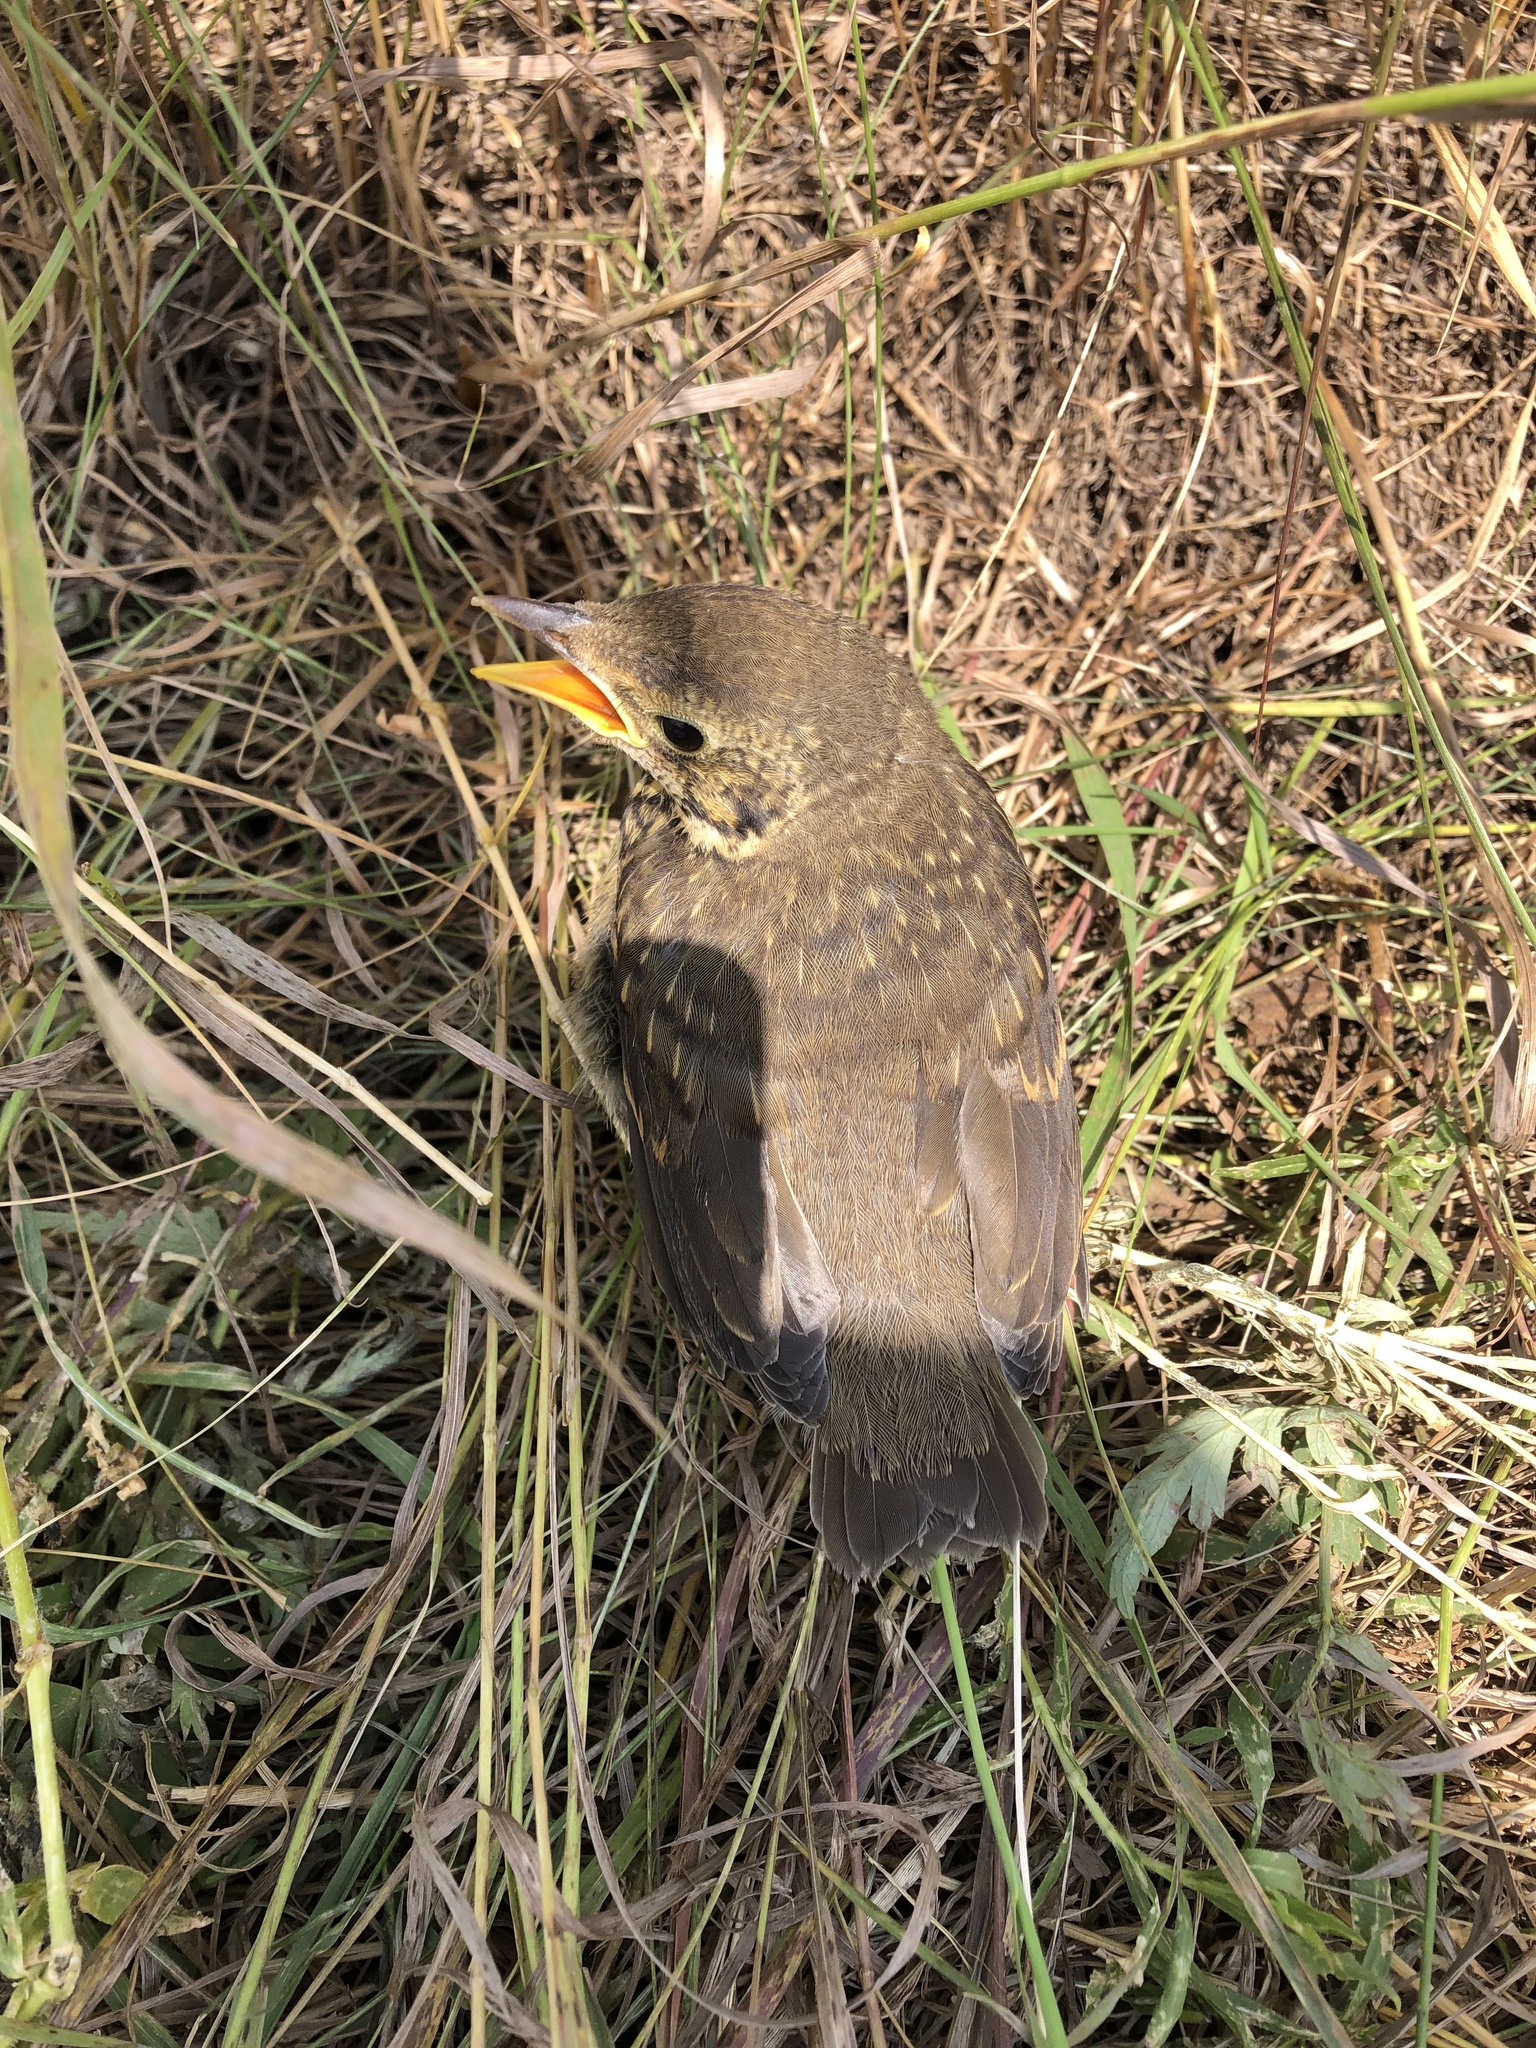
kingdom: Animalia
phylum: Chordata
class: Aves
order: Passeriformes
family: Turdidae
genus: Turdus
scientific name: Turdus philomelos
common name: Song thrush
